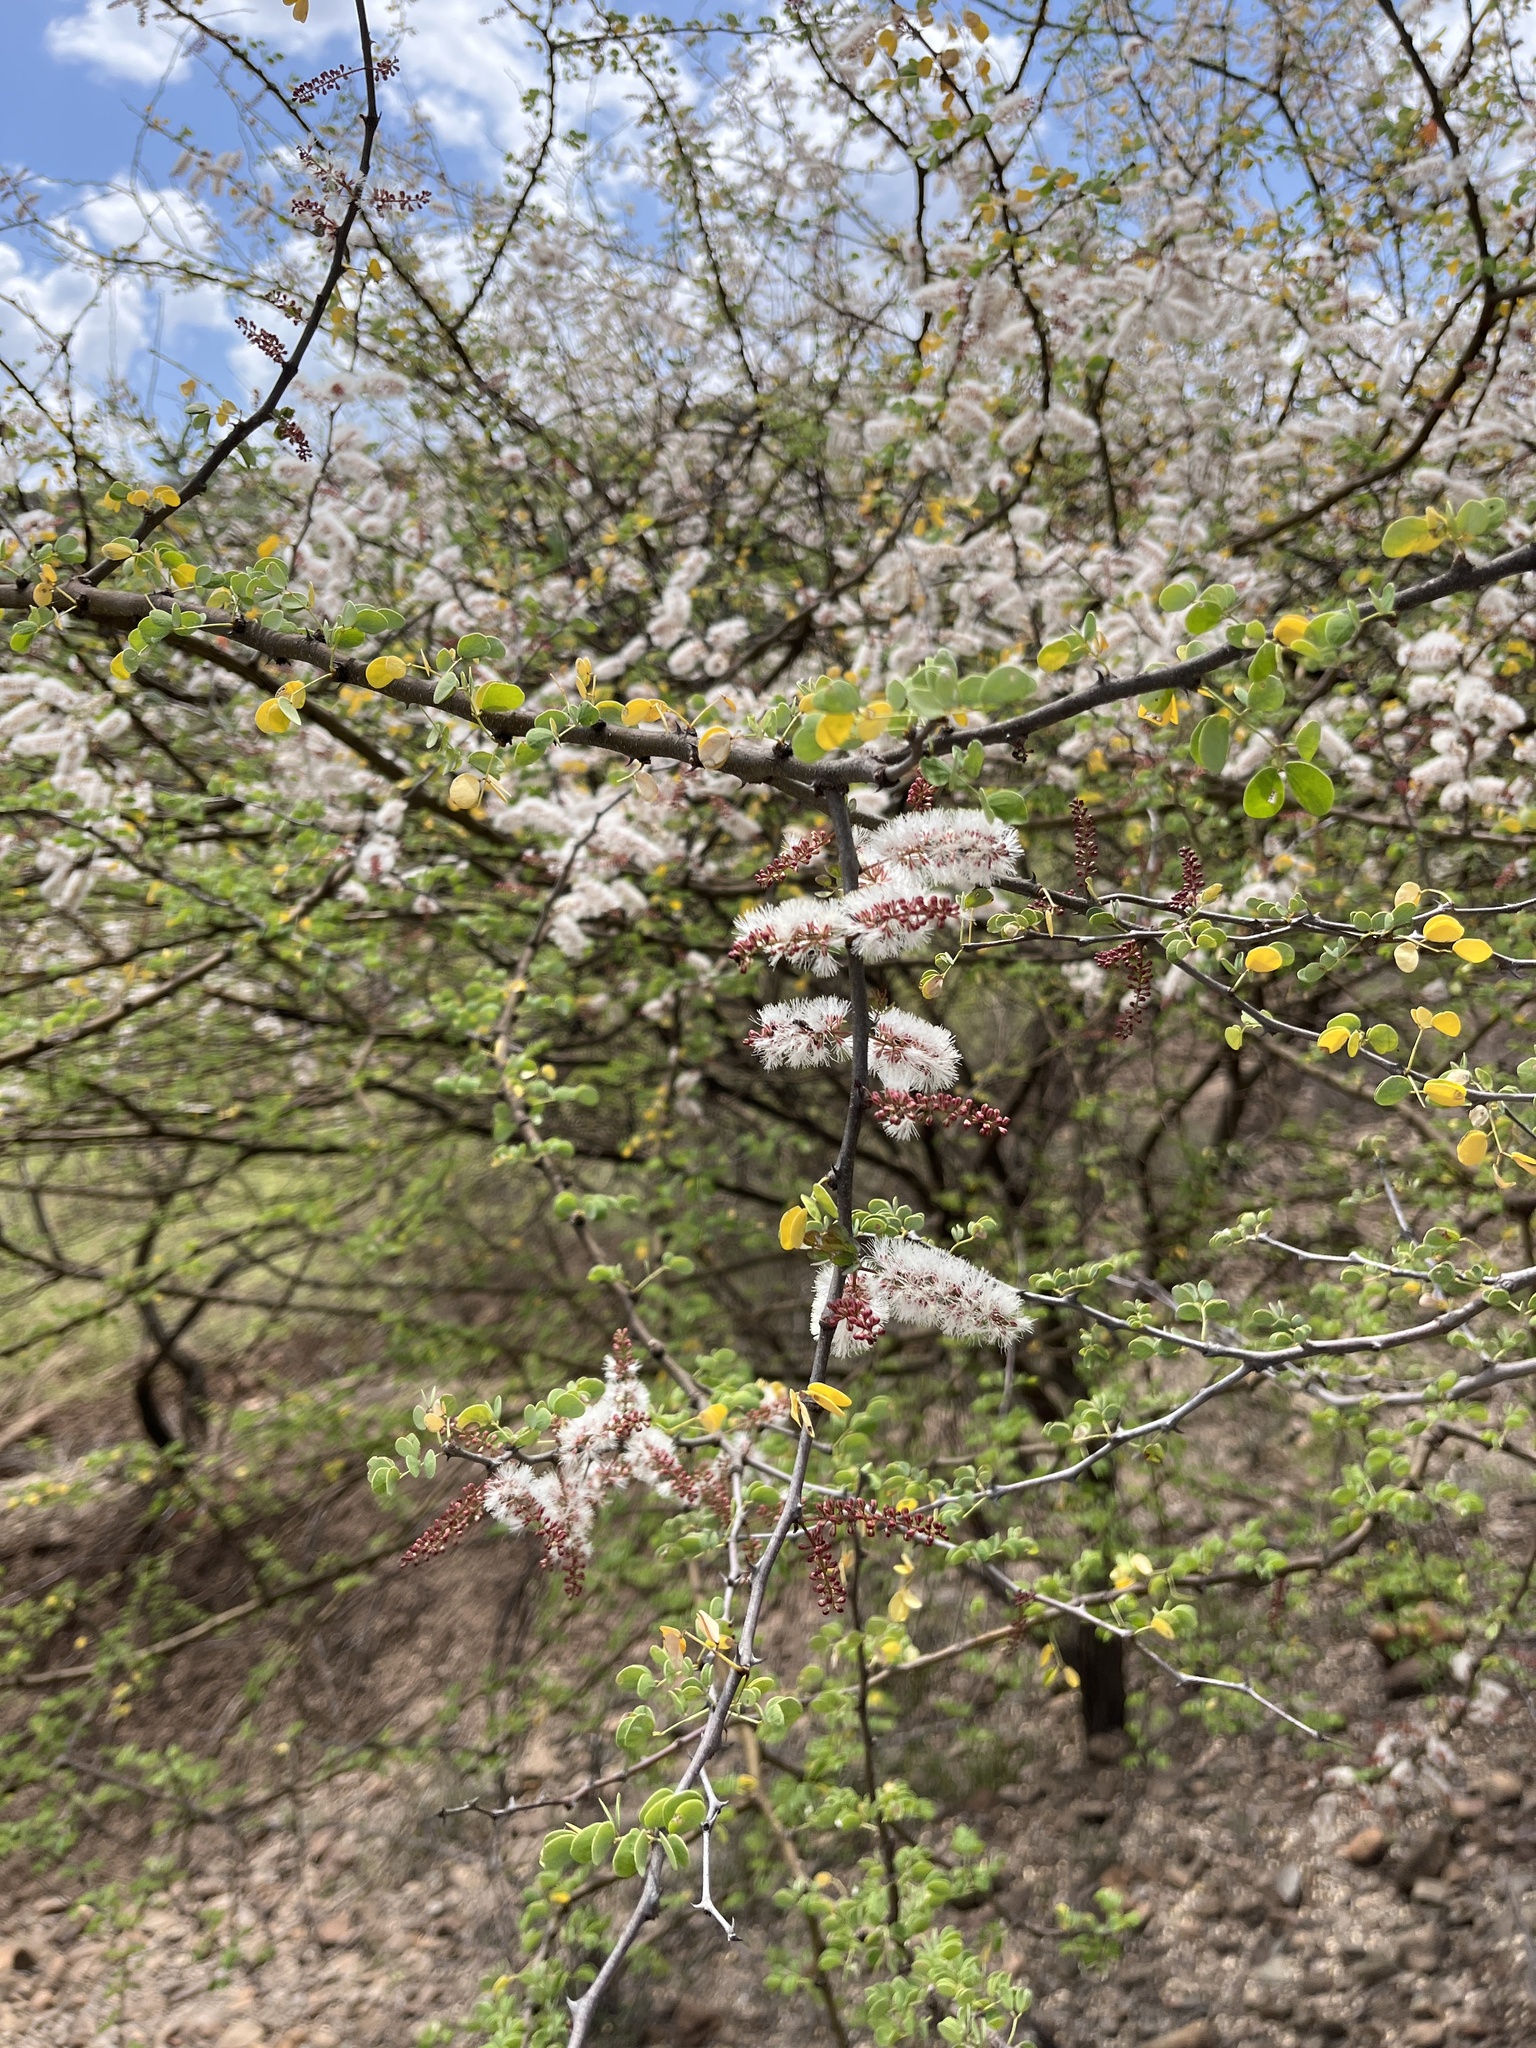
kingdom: Plantae
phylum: Tracheophyta
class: Magnoliopsida
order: Fabales
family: Fabaceae
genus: Senegalia
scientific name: Senegalia mellifera
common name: Hookthorn
